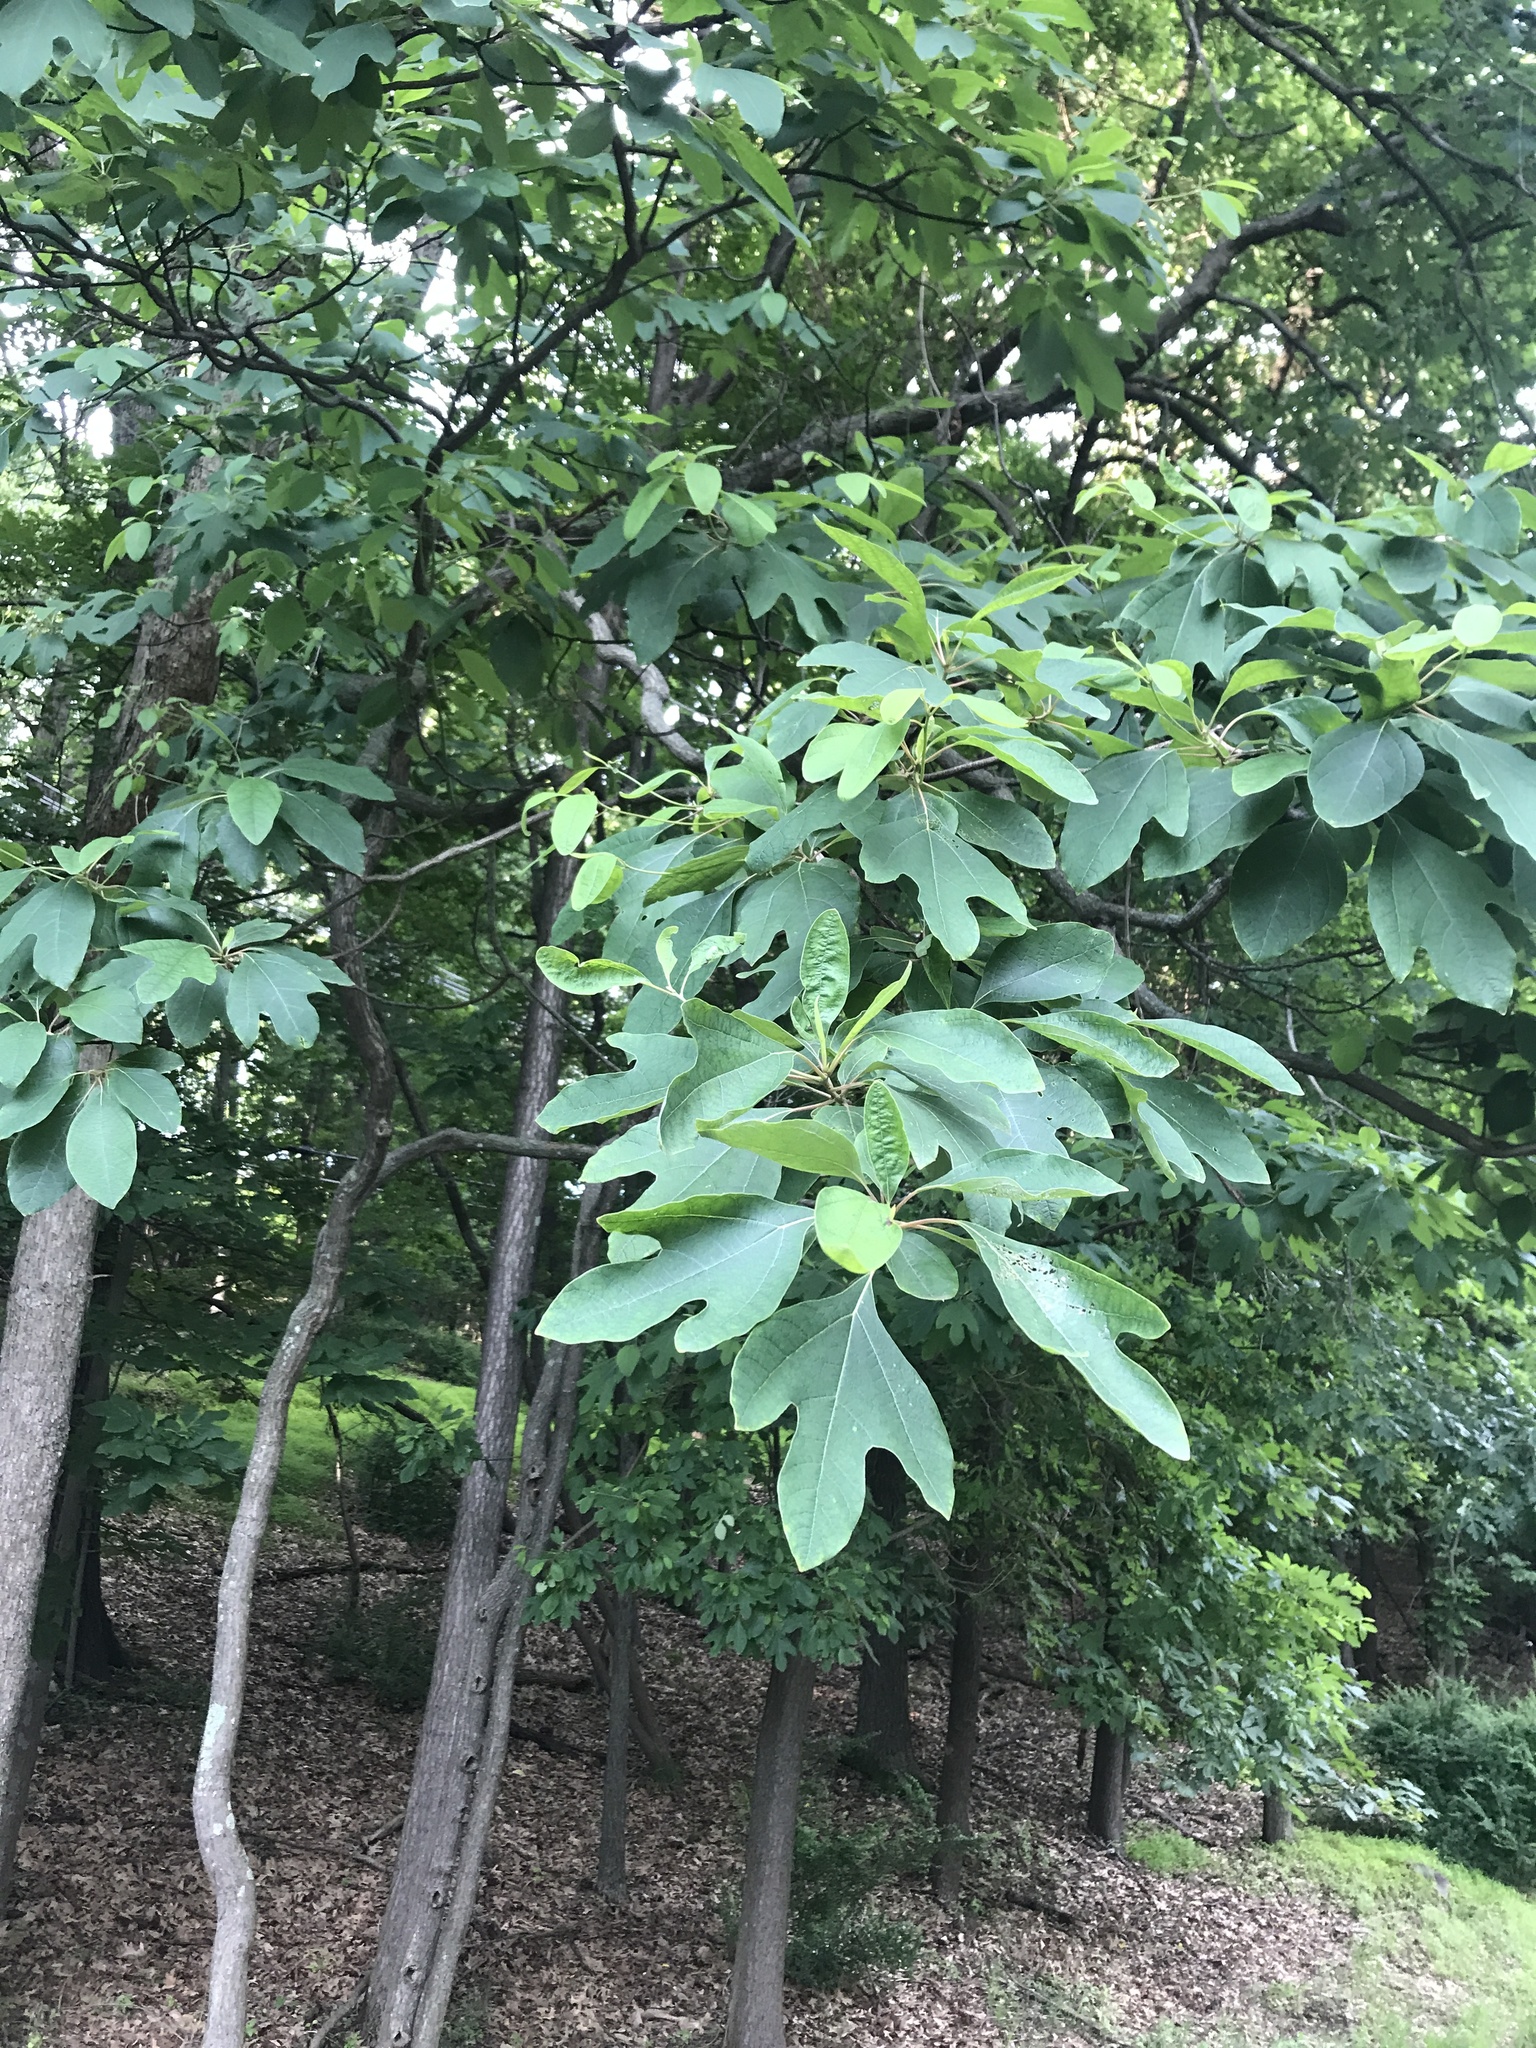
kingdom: Plantae
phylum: Tracheophyta
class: Magnoliopsida
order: Laurales
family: Lauraceae
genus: Sassafras
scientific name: Sassafras albidum
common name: Sassafras
